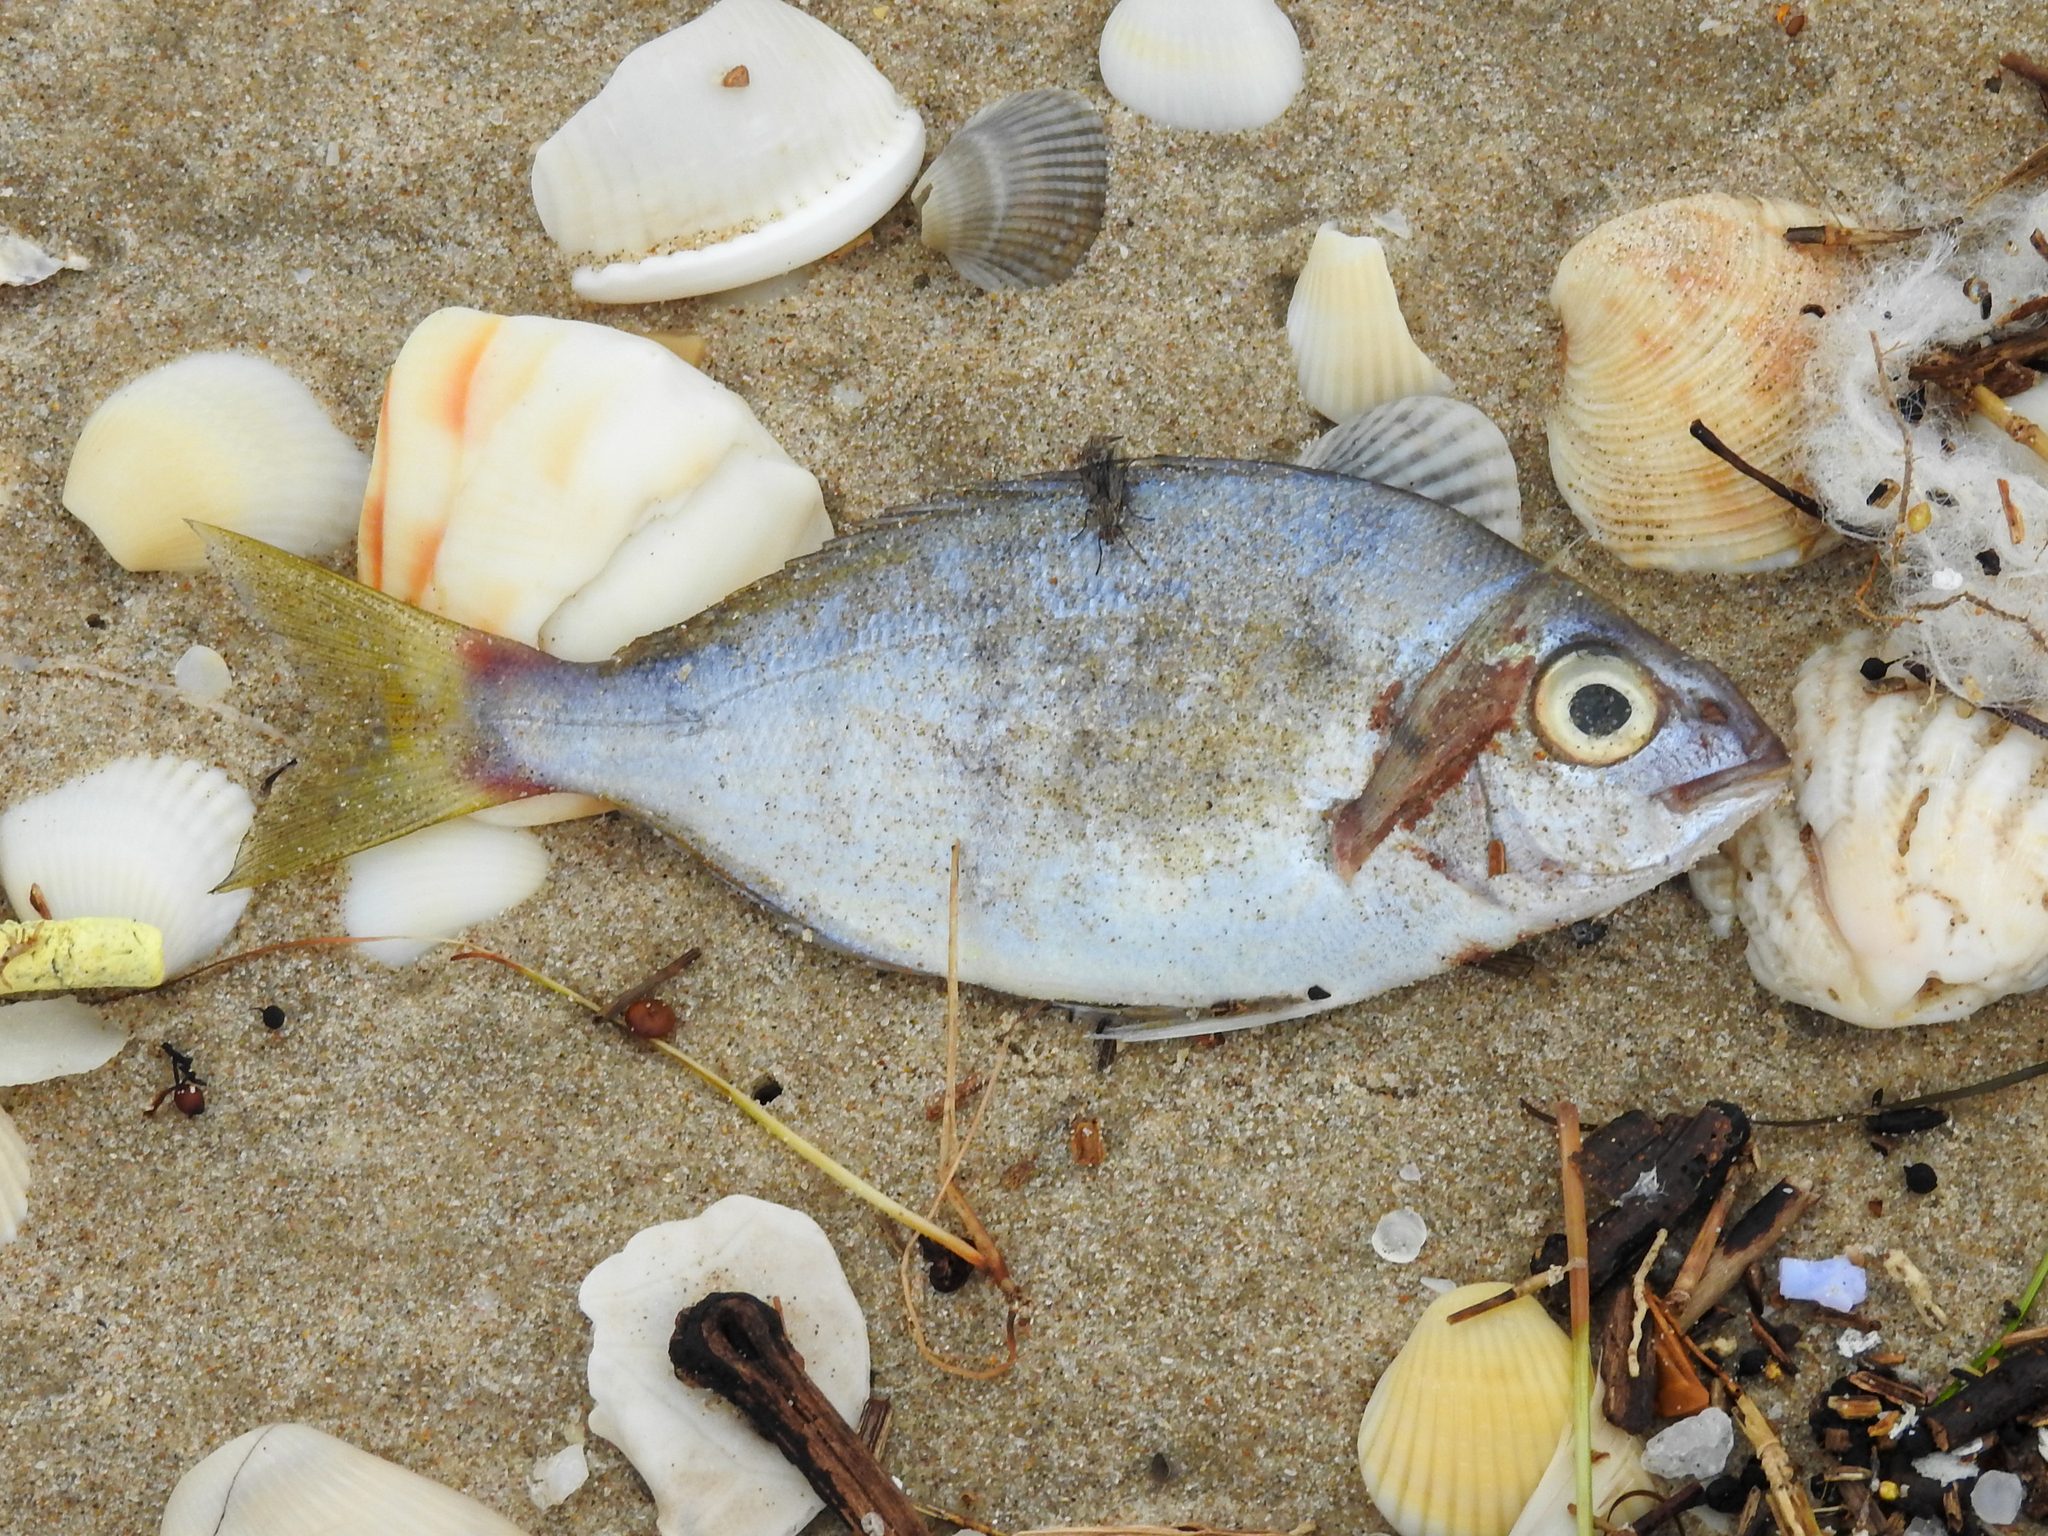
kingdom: Animalia
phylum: Chordata
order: Perciformes
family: Sparidae
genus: Lagodon
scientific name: Lagodon rhomboides
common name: Pinfish
